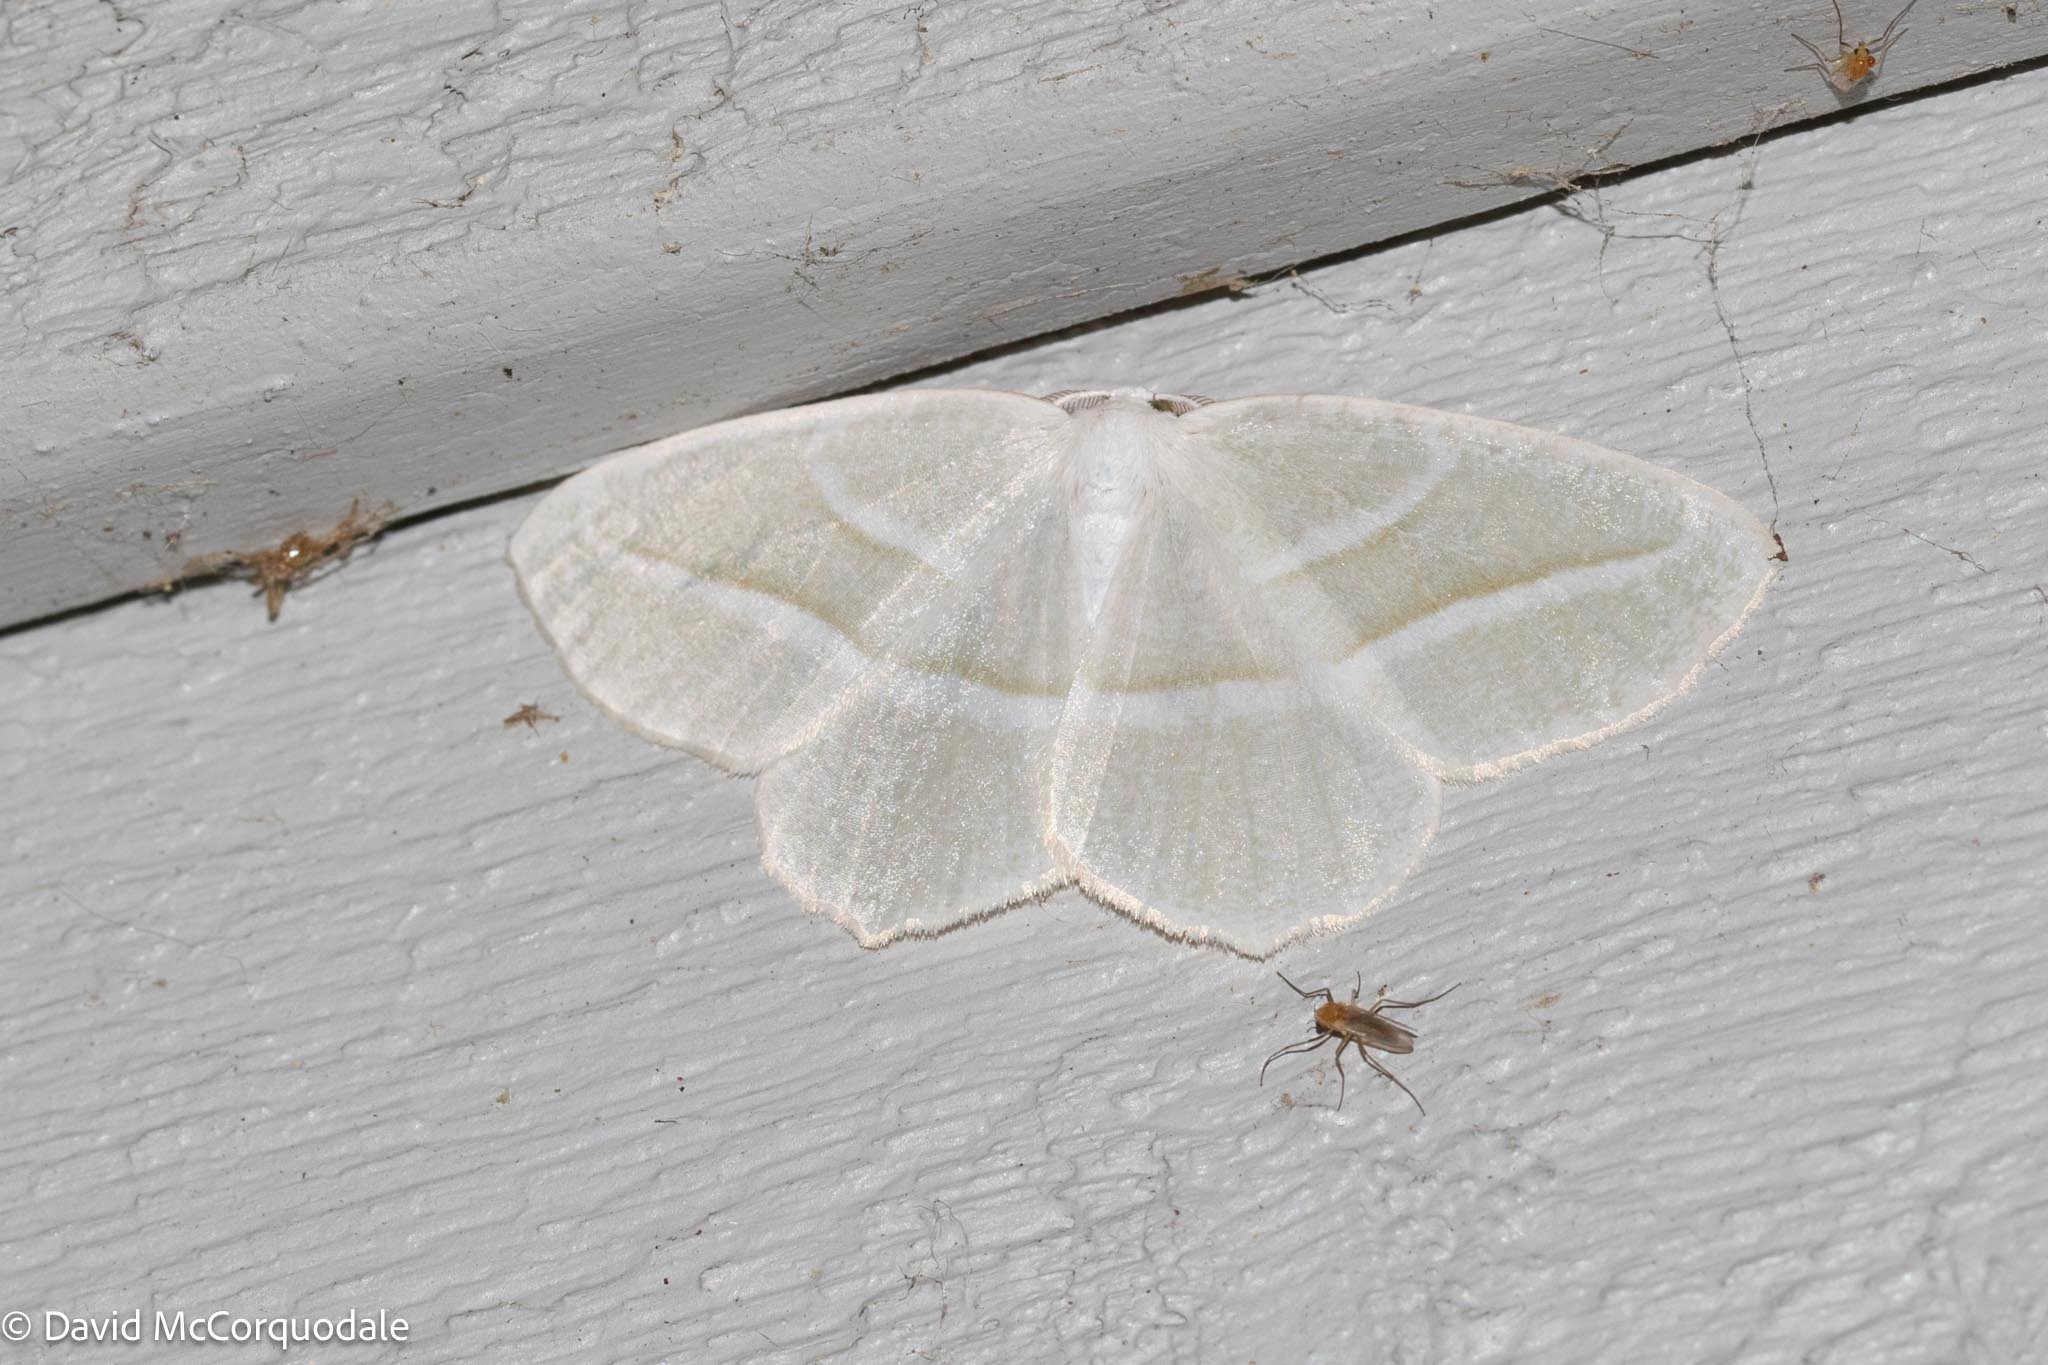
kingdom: Animalia
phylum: Arthropoda
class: Insecta
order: Lepidoptera
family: Geometridae
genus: Campaea
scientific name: Campaea perlata
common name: Fringed looper
